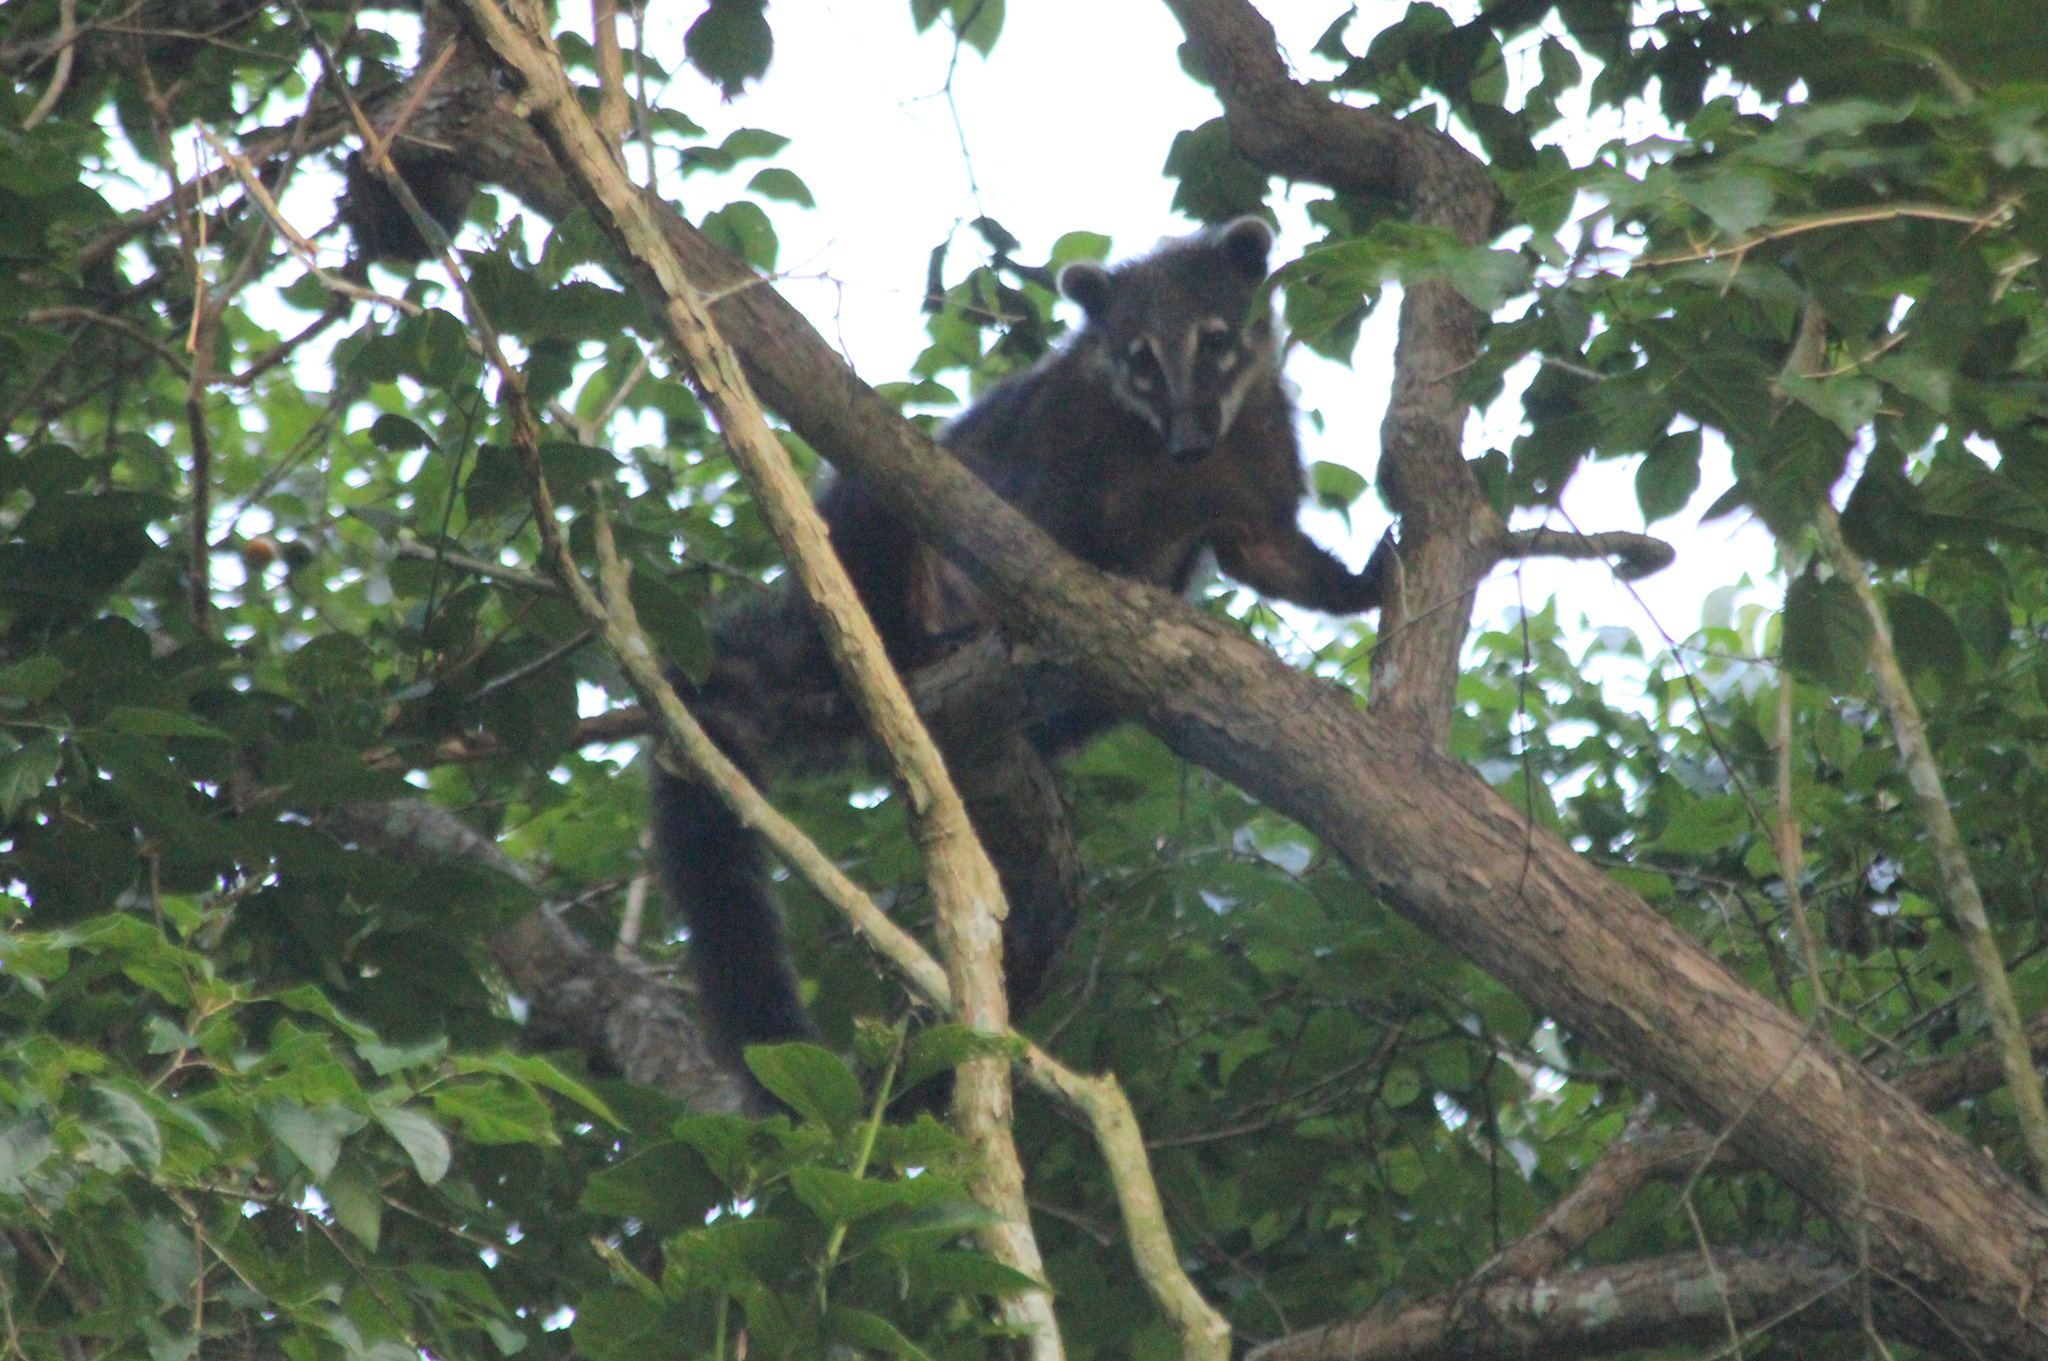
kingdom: Animalia
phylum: Chordata
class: Mammalia
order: Carnivora
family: Procyonidae
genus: Nasua
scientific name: Nasua nasua
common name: South american coati
